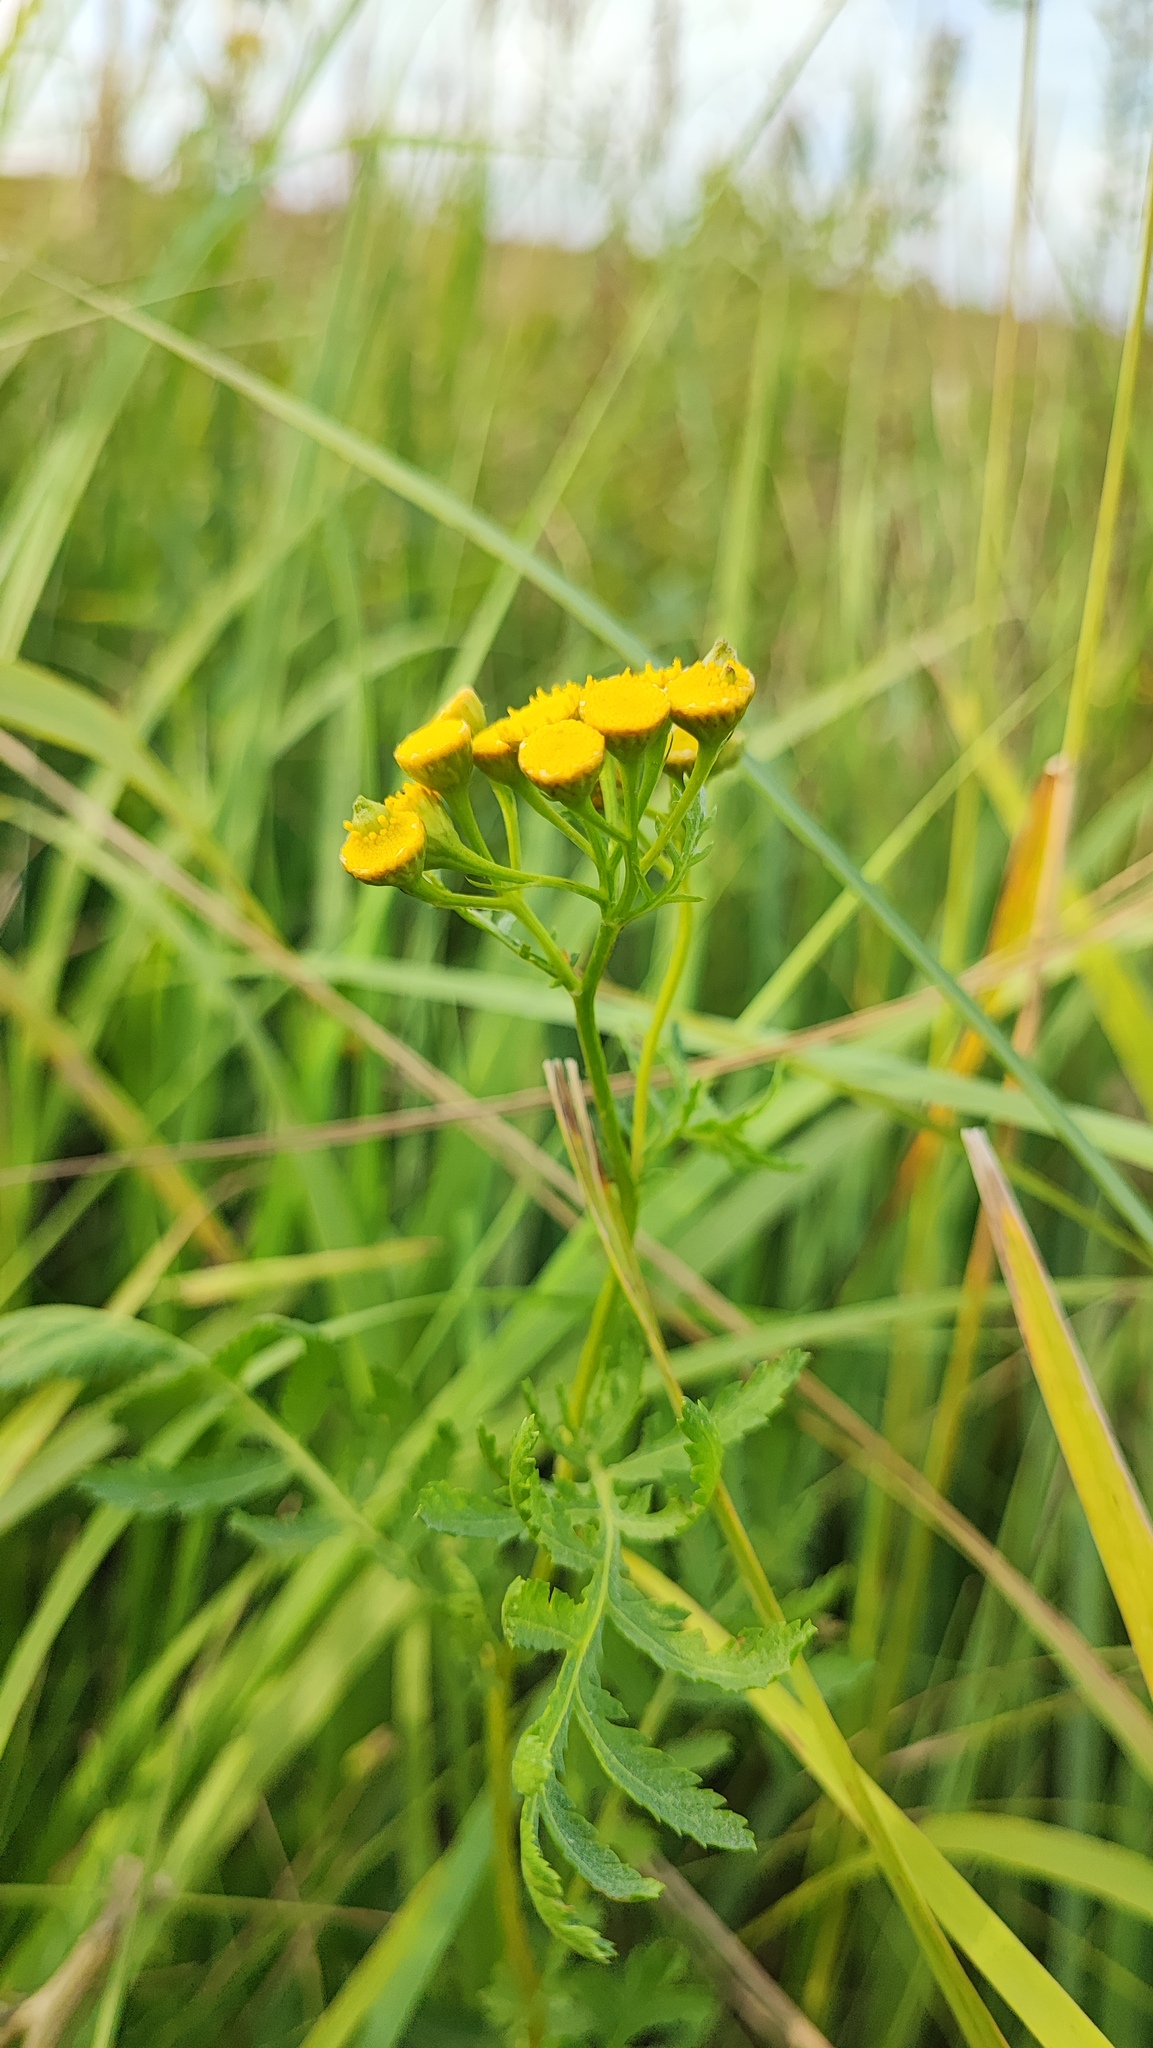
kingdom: Plantae
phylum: Tracheophyta
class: Magnoliopsida
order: Asterales
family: Asteraceae
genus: Tanacetum
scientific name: Tanacetum vulgare
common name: Common tansy
